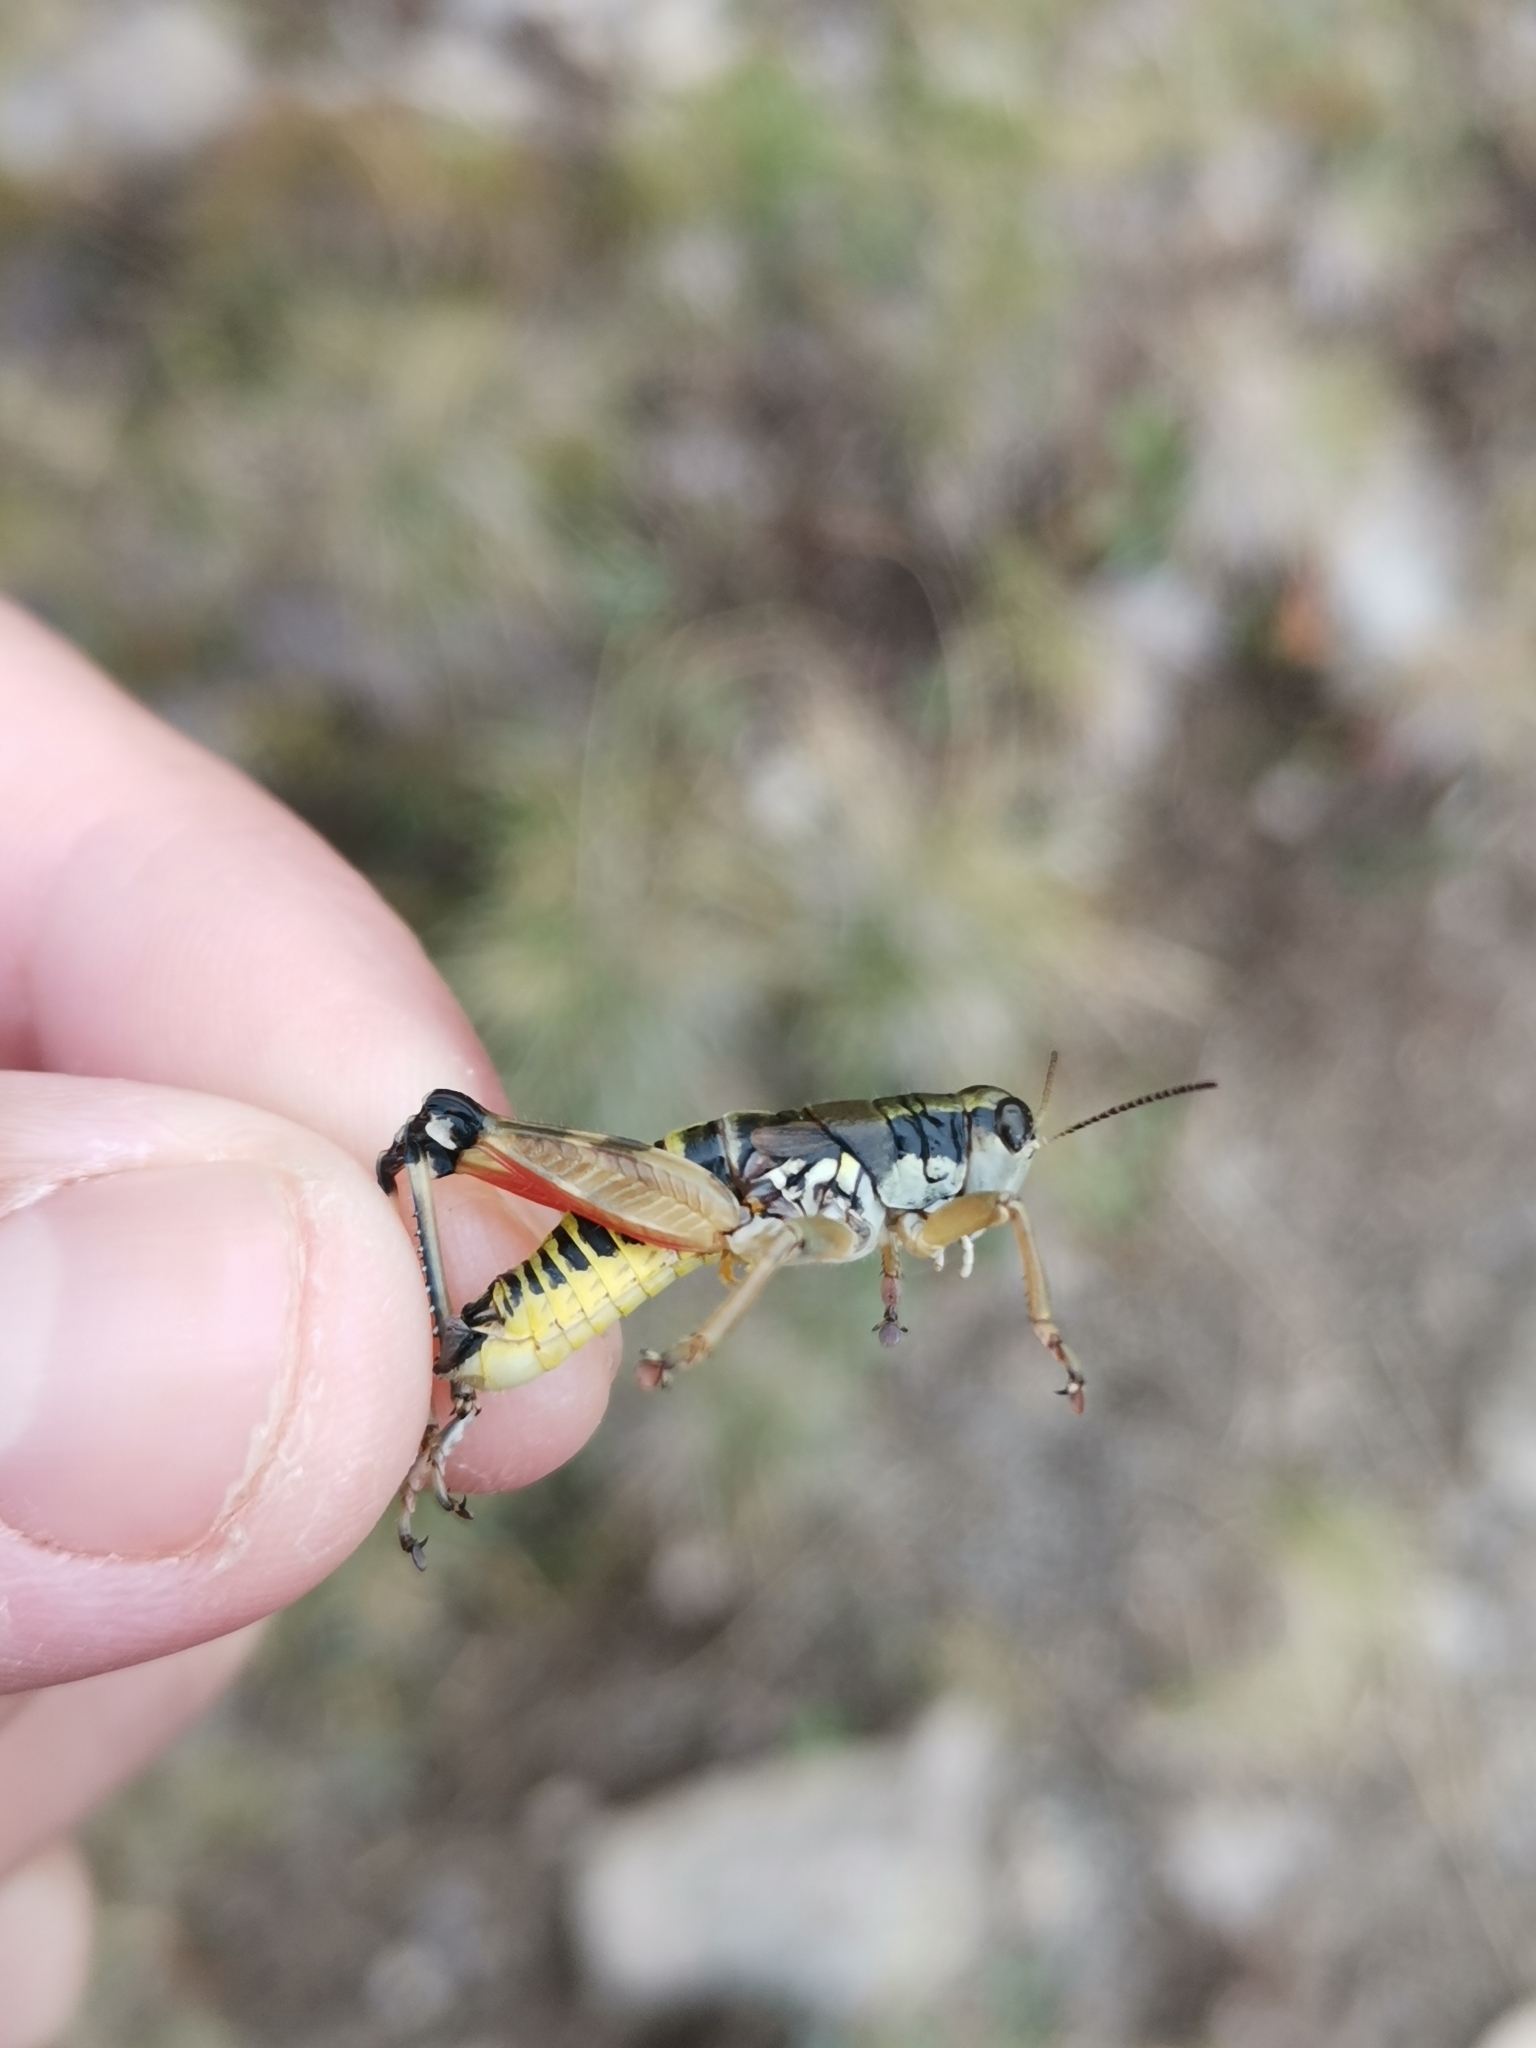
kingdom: Animalia
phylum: Arthropoda
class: Insecta
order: Orthoptera
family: Acrididae
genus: Podisma
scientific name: Podisma pedestris
